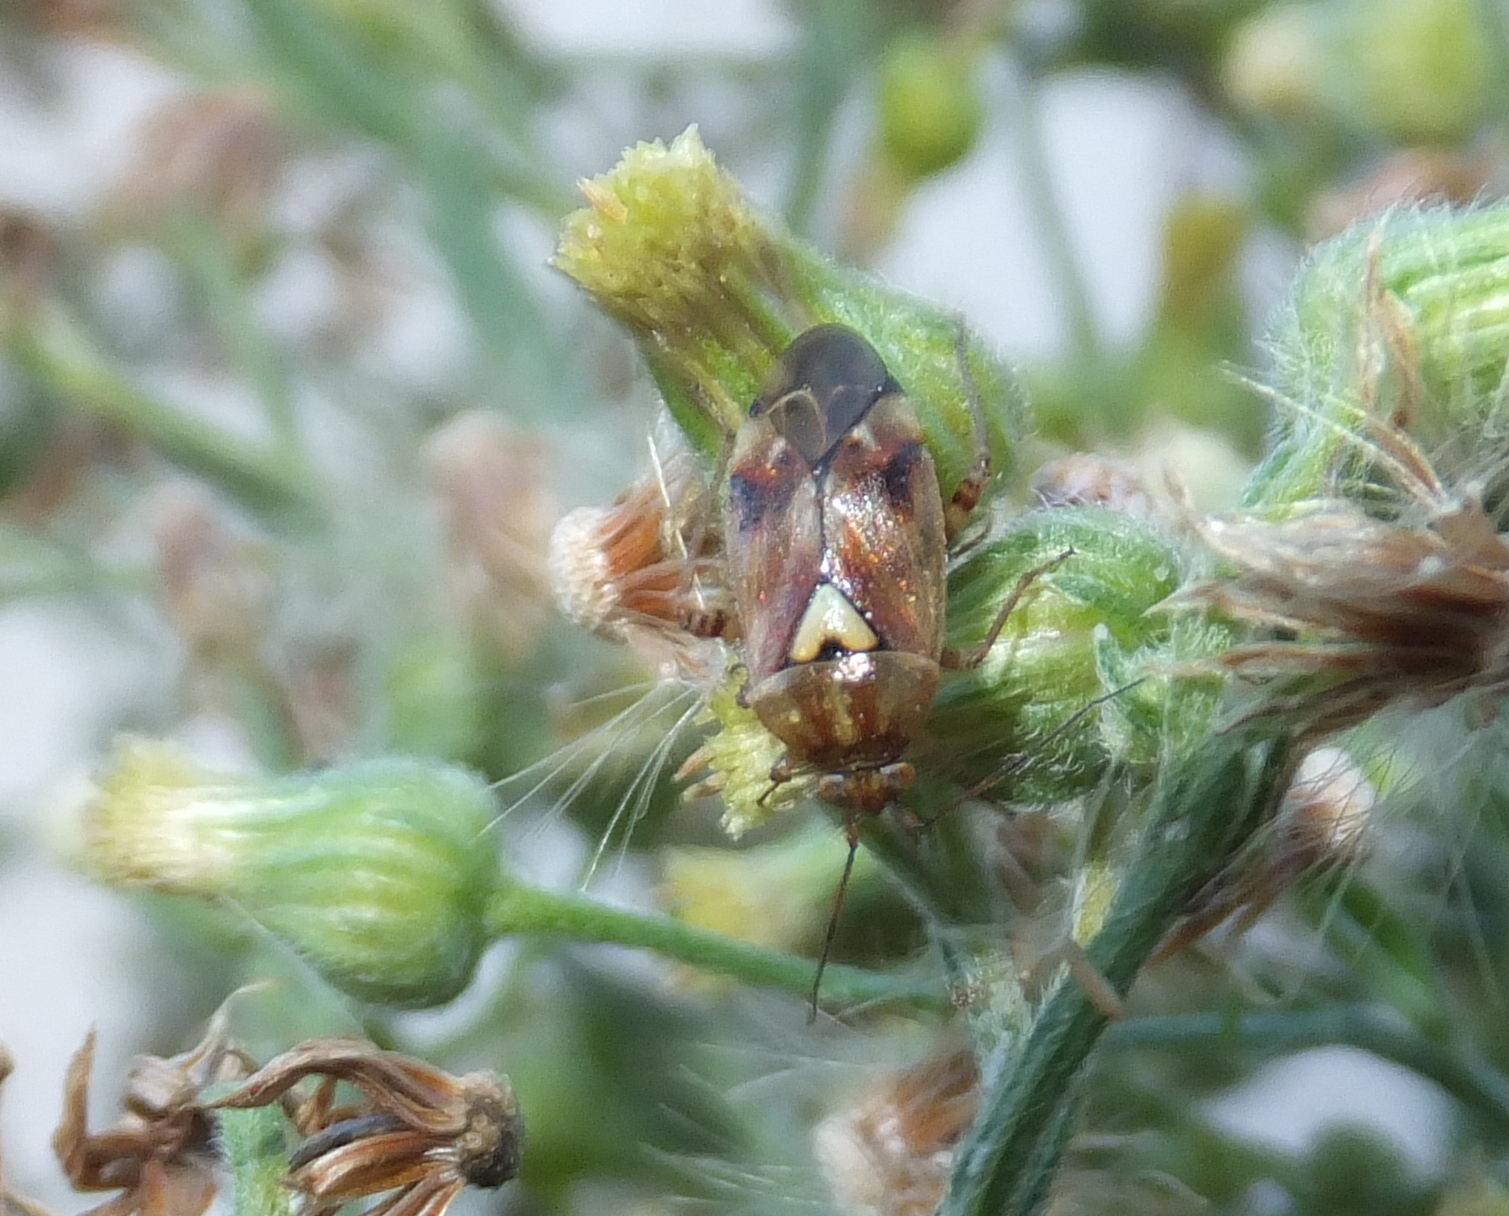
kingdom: Animalia
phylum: Arthropoda
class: Insecta
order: Hemiptera
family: Miridae
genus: Lygus
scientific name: Lygus pratensis
